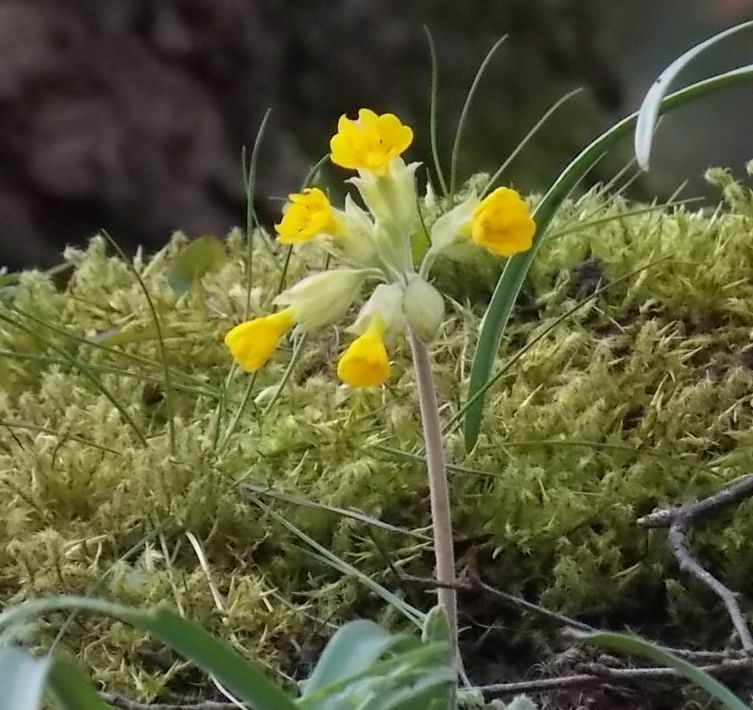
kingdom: Plantae
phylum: Tracheophyta
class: Magnoliopsida
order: Ericales
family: Primulaceae
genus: Primula
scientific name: Primula veris
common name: Cowslip
